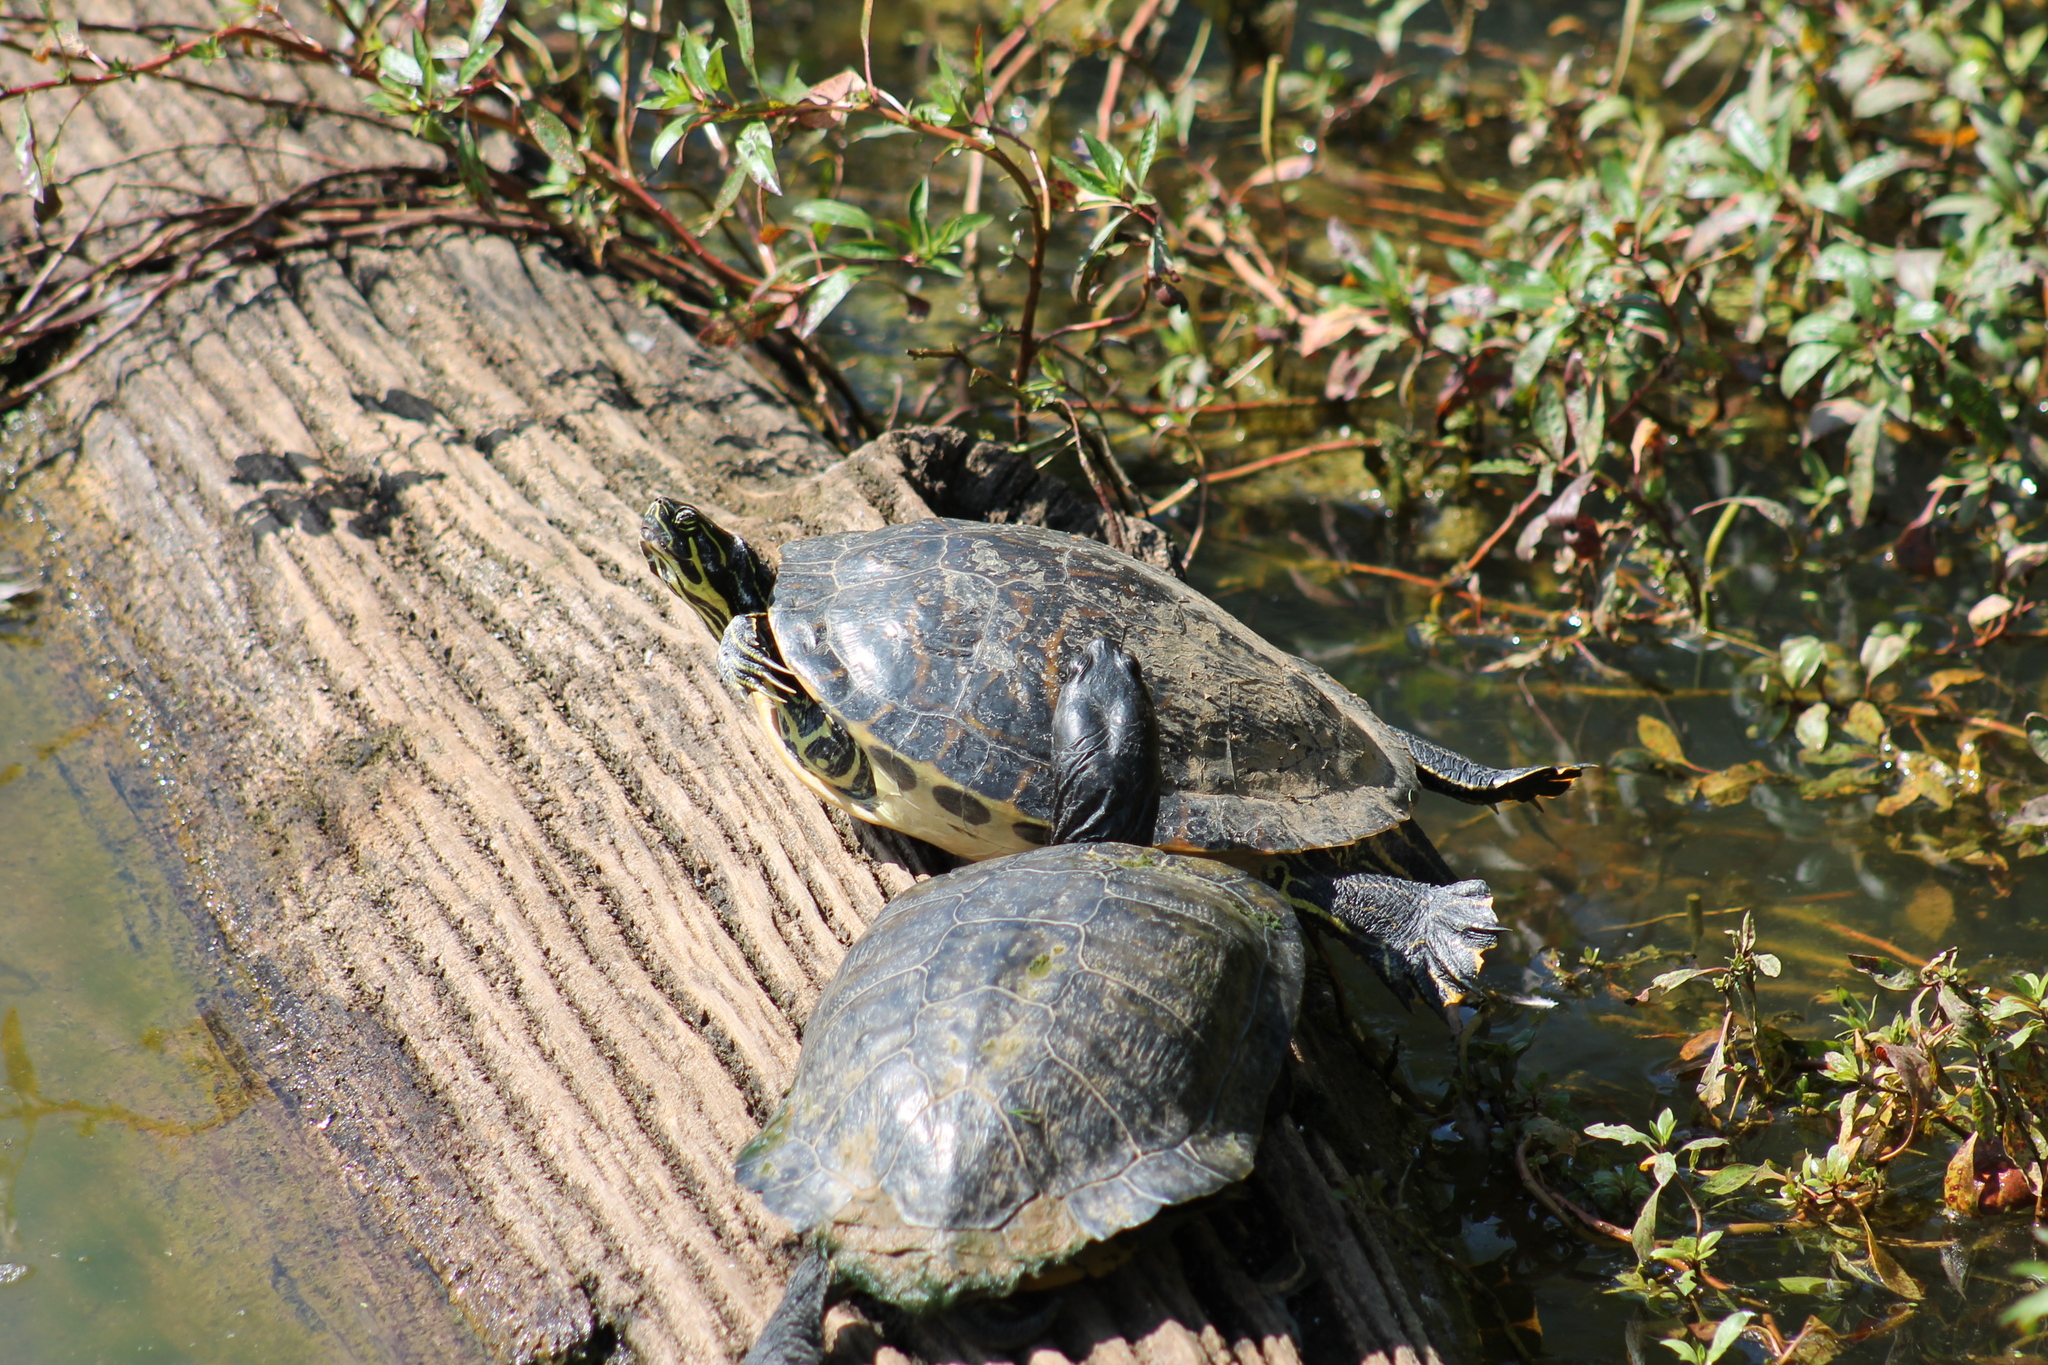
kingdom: Animalia
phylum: Chordata
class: Testudines
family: Emydidae
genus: Pseudemys
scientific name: Pseudemys peninsularis
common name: Peninsula cooter
